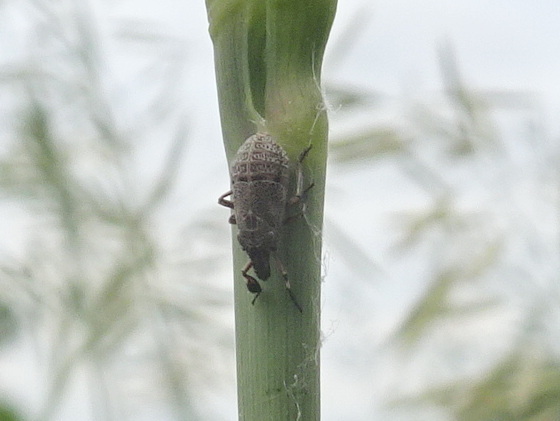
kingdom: Animalia
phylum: Arthropoda
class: Insecta
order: Hemiptera
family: Caliscelidae
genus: Fitchiella
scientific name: Fitchiella robertsonii
